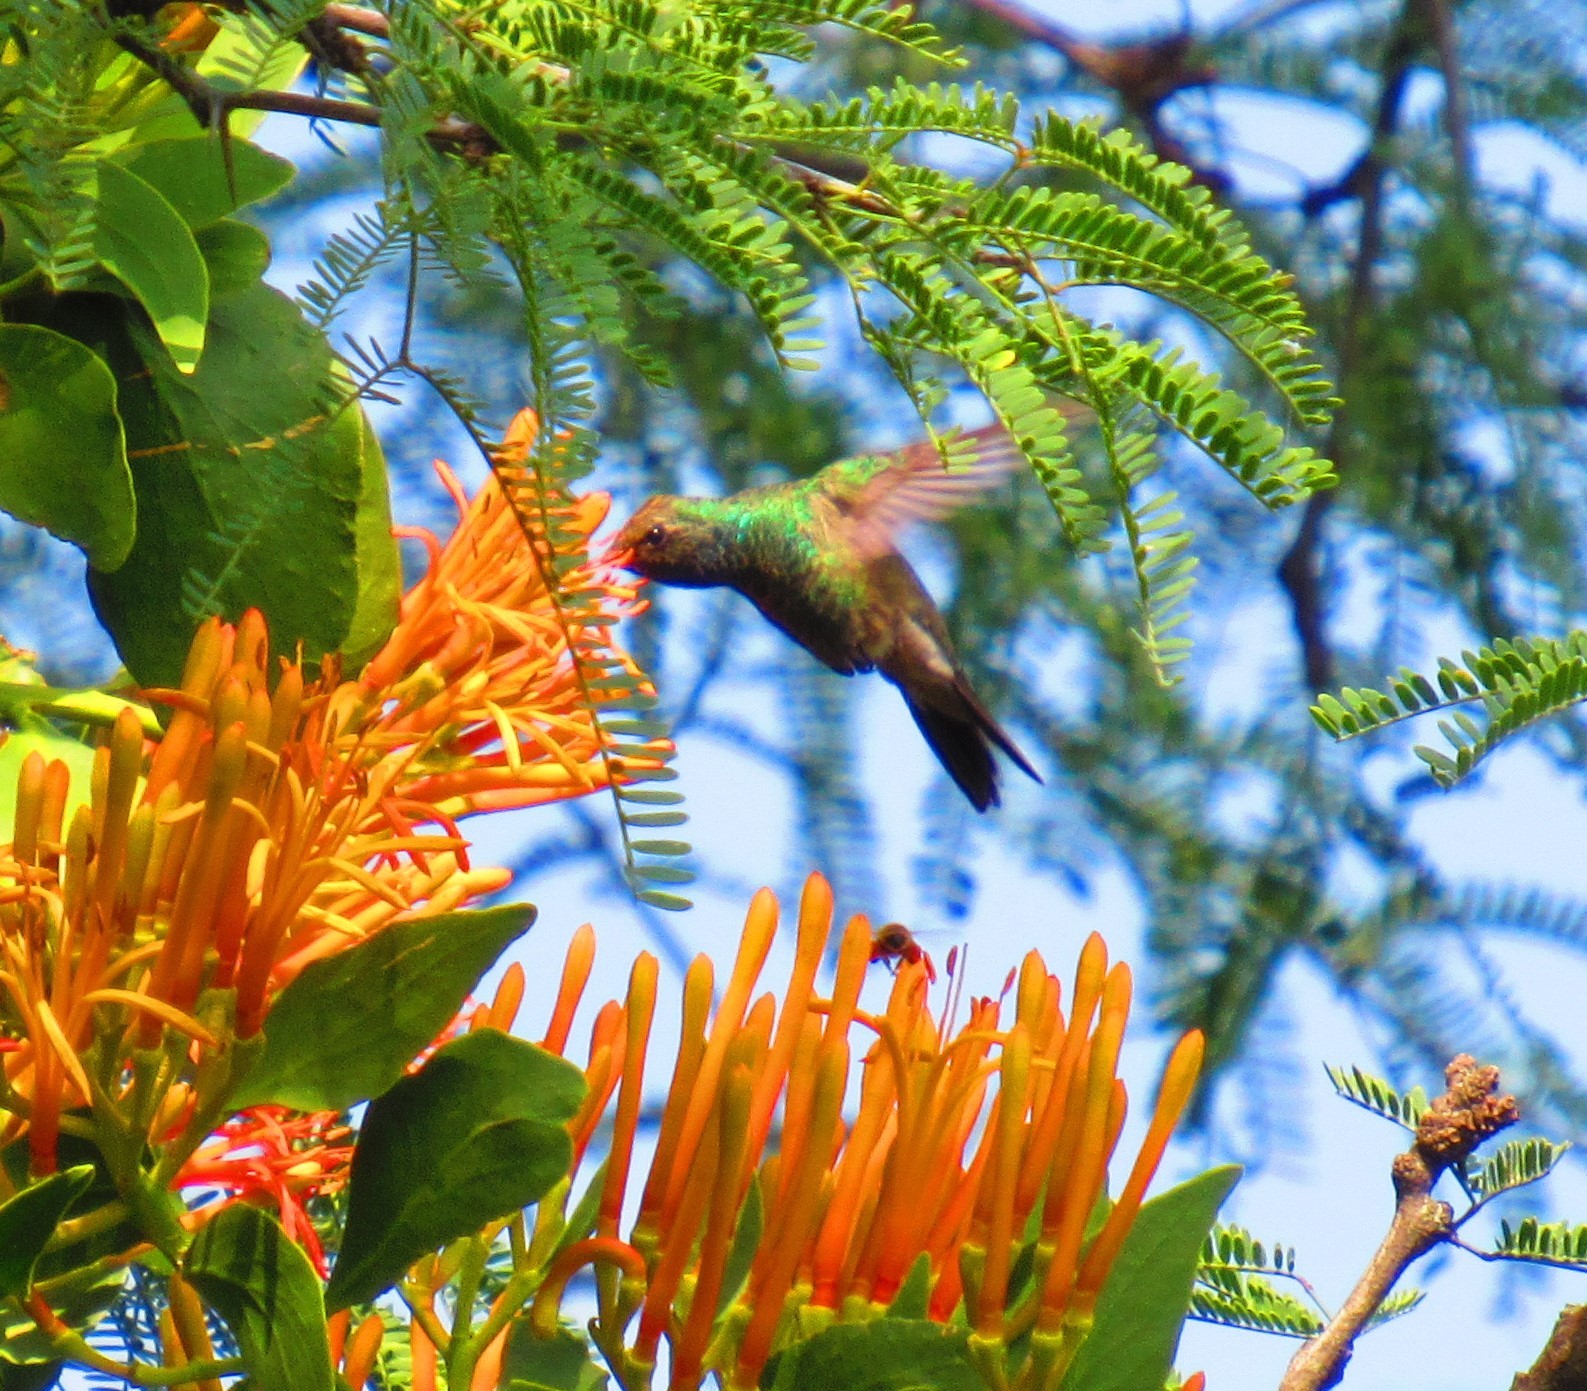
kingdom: Animalia
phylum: Chordata
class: Aves
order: Apodiformes
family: Trochilidae
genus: Cynanthus
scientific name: Cynanthus latirostris
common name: Broad-billed hummingbird
